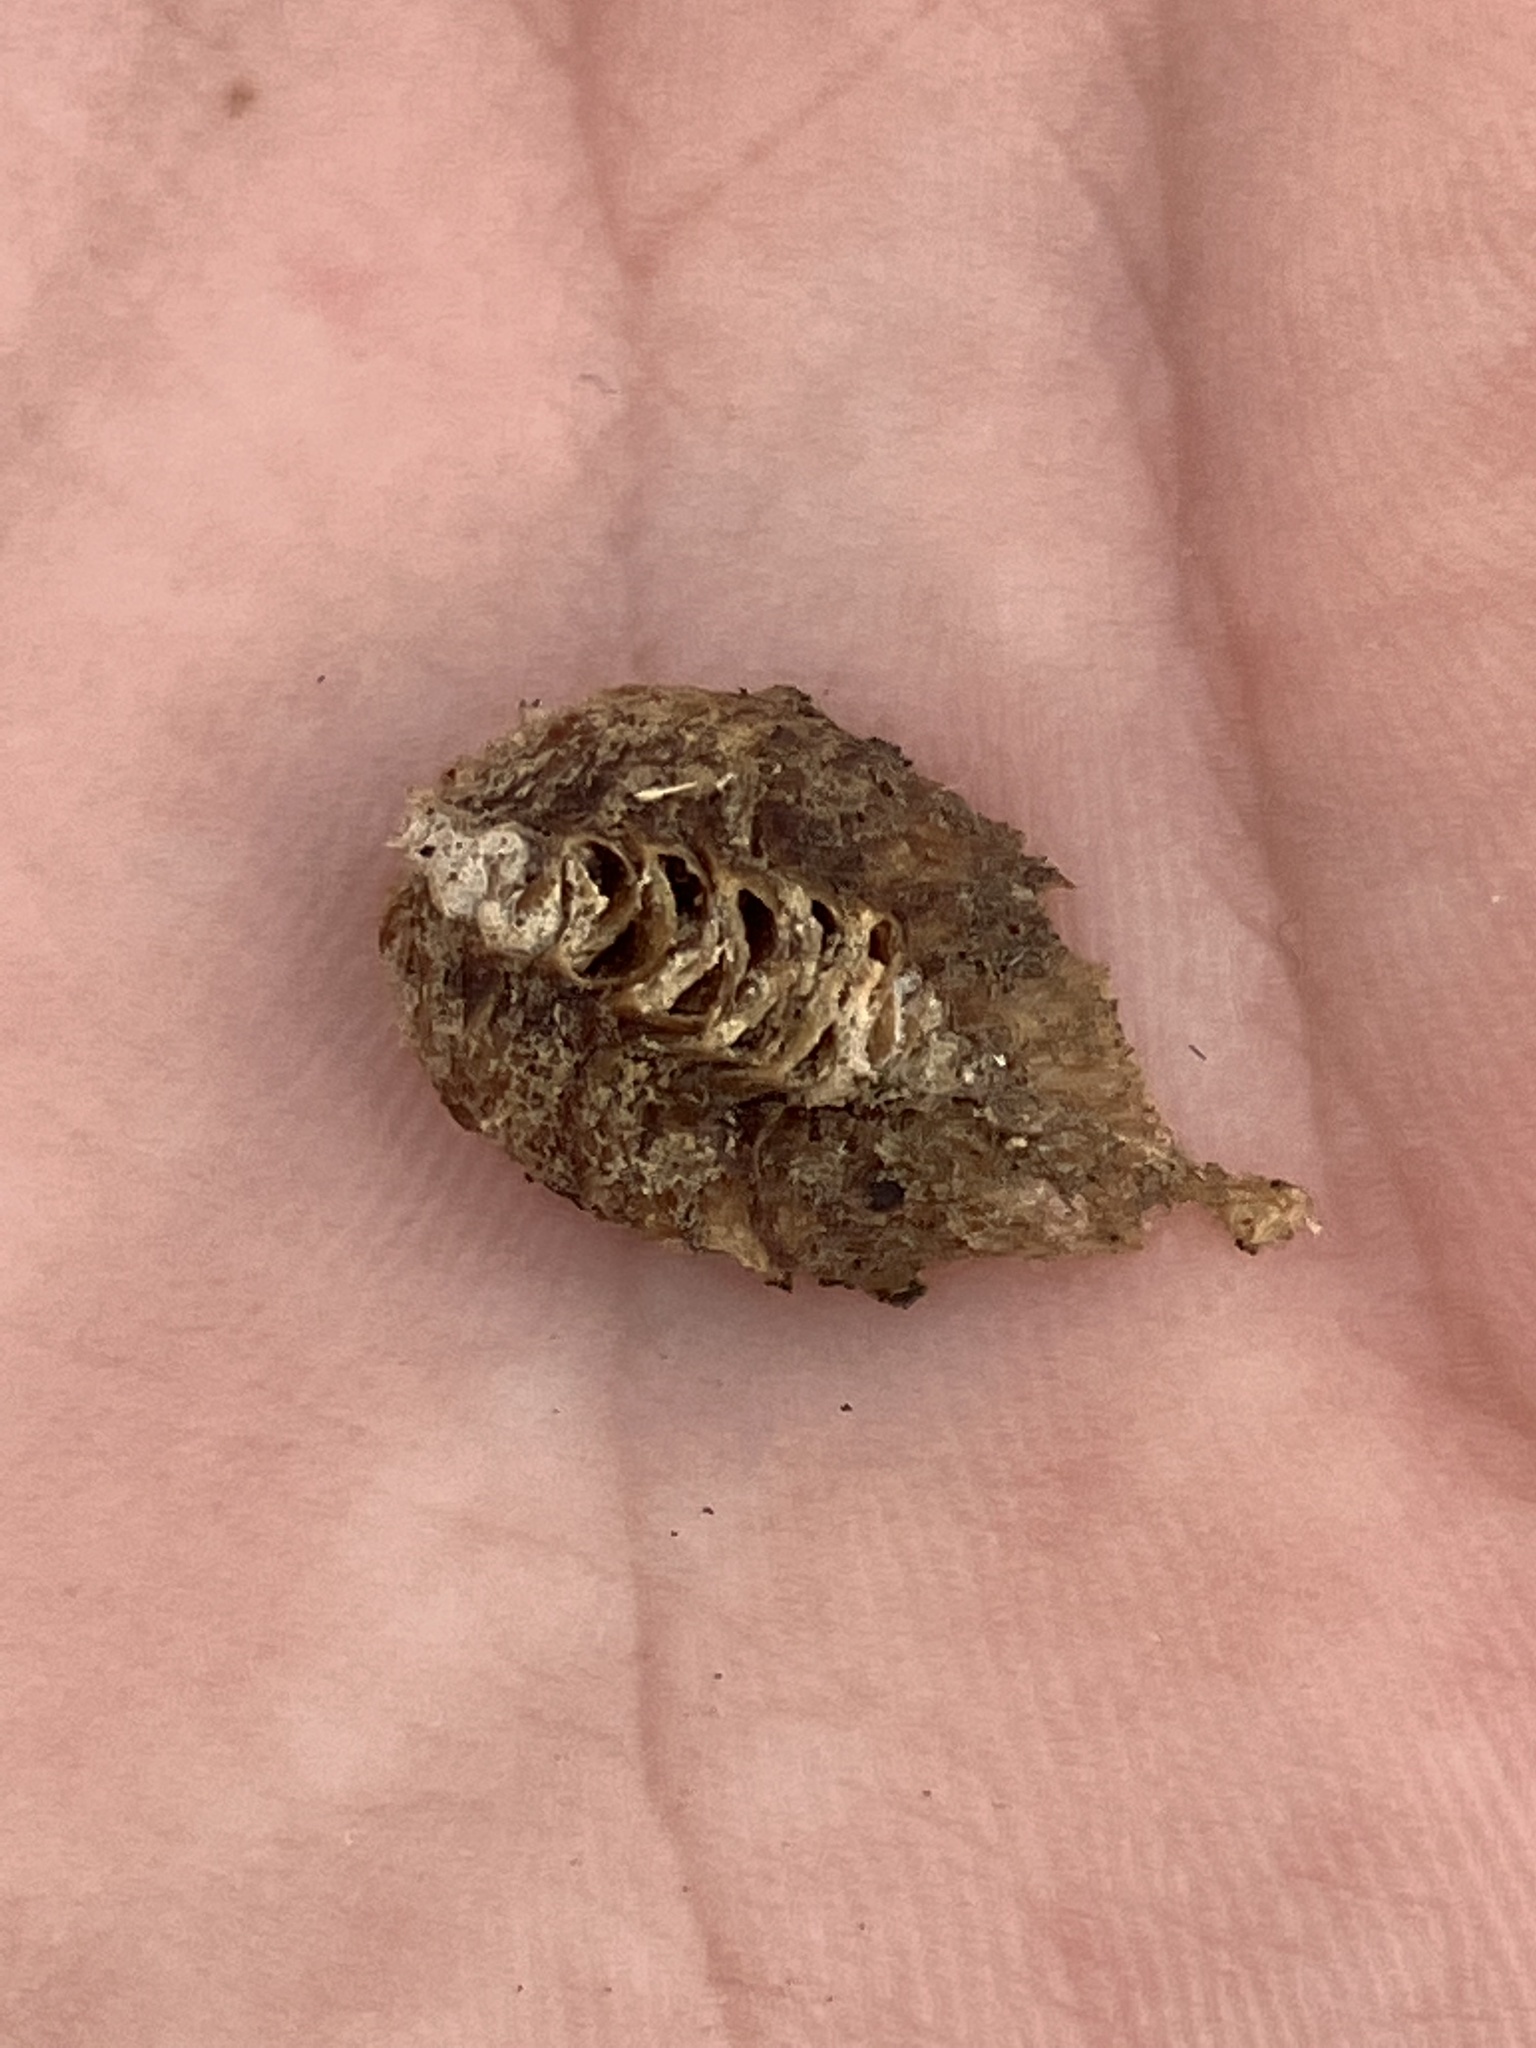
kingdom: Animalia
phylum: Arthropoda
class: Insecta
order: Mantodea
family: Mantidae
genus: Stagmomantis
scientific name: Stagmomantis carolina
